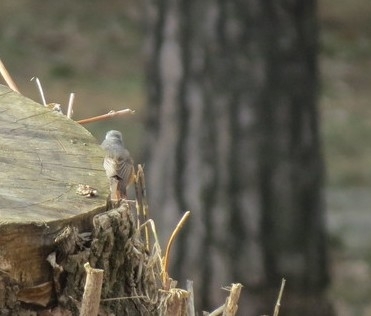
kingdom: Animalia
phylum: Chordata
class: Aves
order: Passeriformes
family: Muscicapidae
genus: Phoenicurus
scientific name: Phoenicurus phoenicurus
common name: Common redstart
